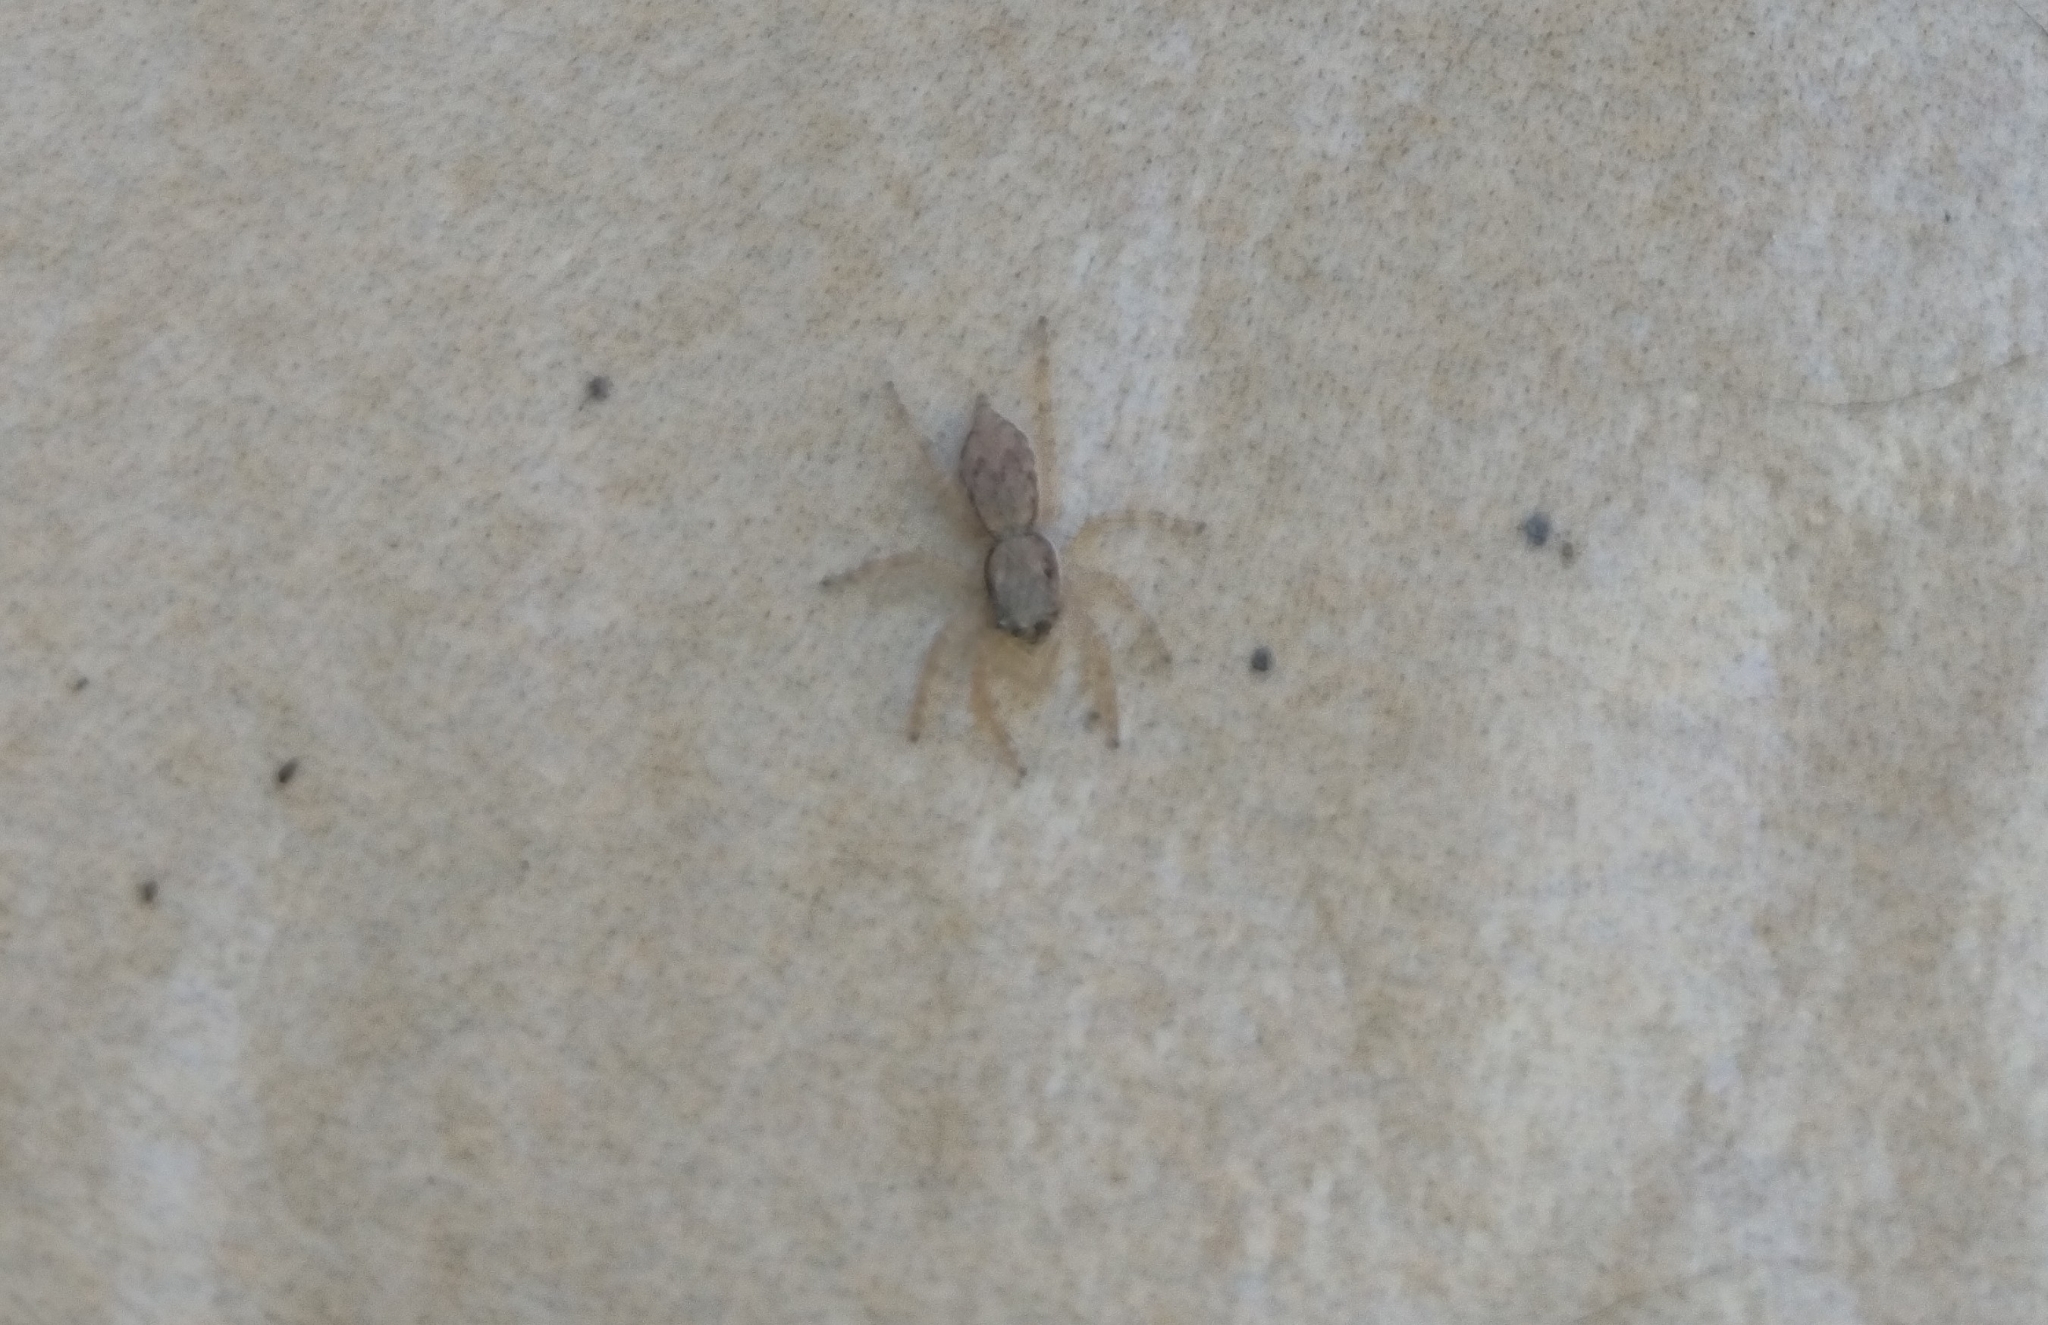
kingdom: Animalia
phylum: Arthropoda
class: Arachnida
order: Araneae
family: Salticidae
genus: Menemerus
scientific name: Menemerus bivittatus
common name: Gray wall jumper
